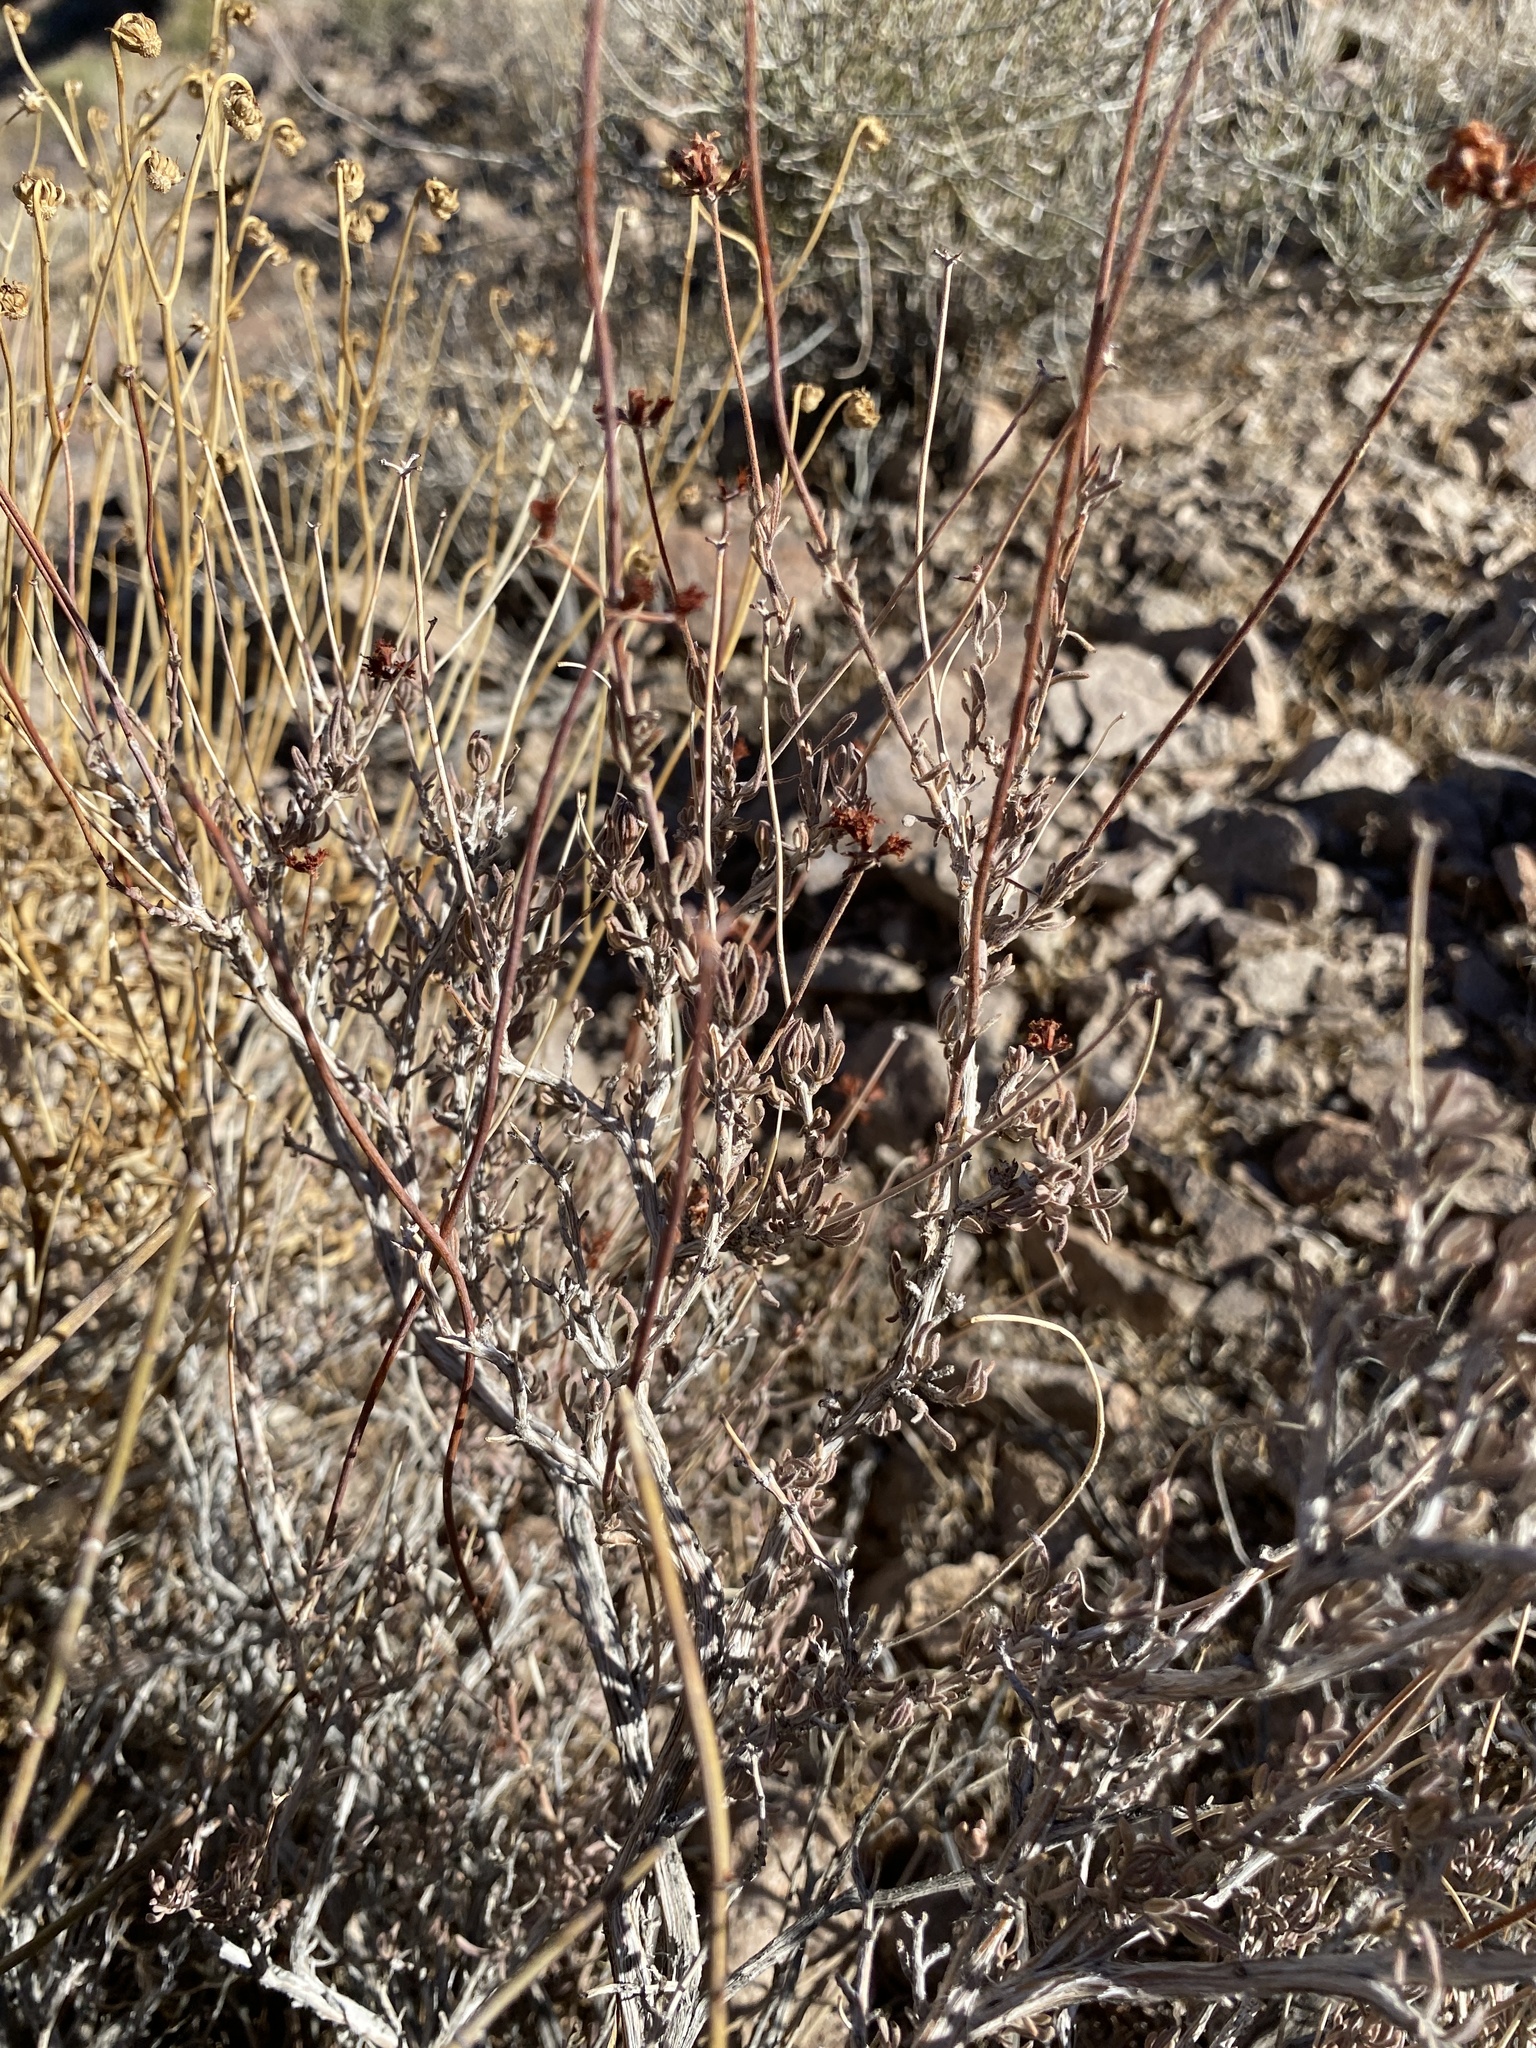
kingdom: Plantae
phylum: Tracheophyta
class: Magnoliopsida
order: Caryophyllales
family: Polygonaceae
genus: Eriogonum
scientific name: Eriogonum fasciculatum
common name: California wild buckwheat
